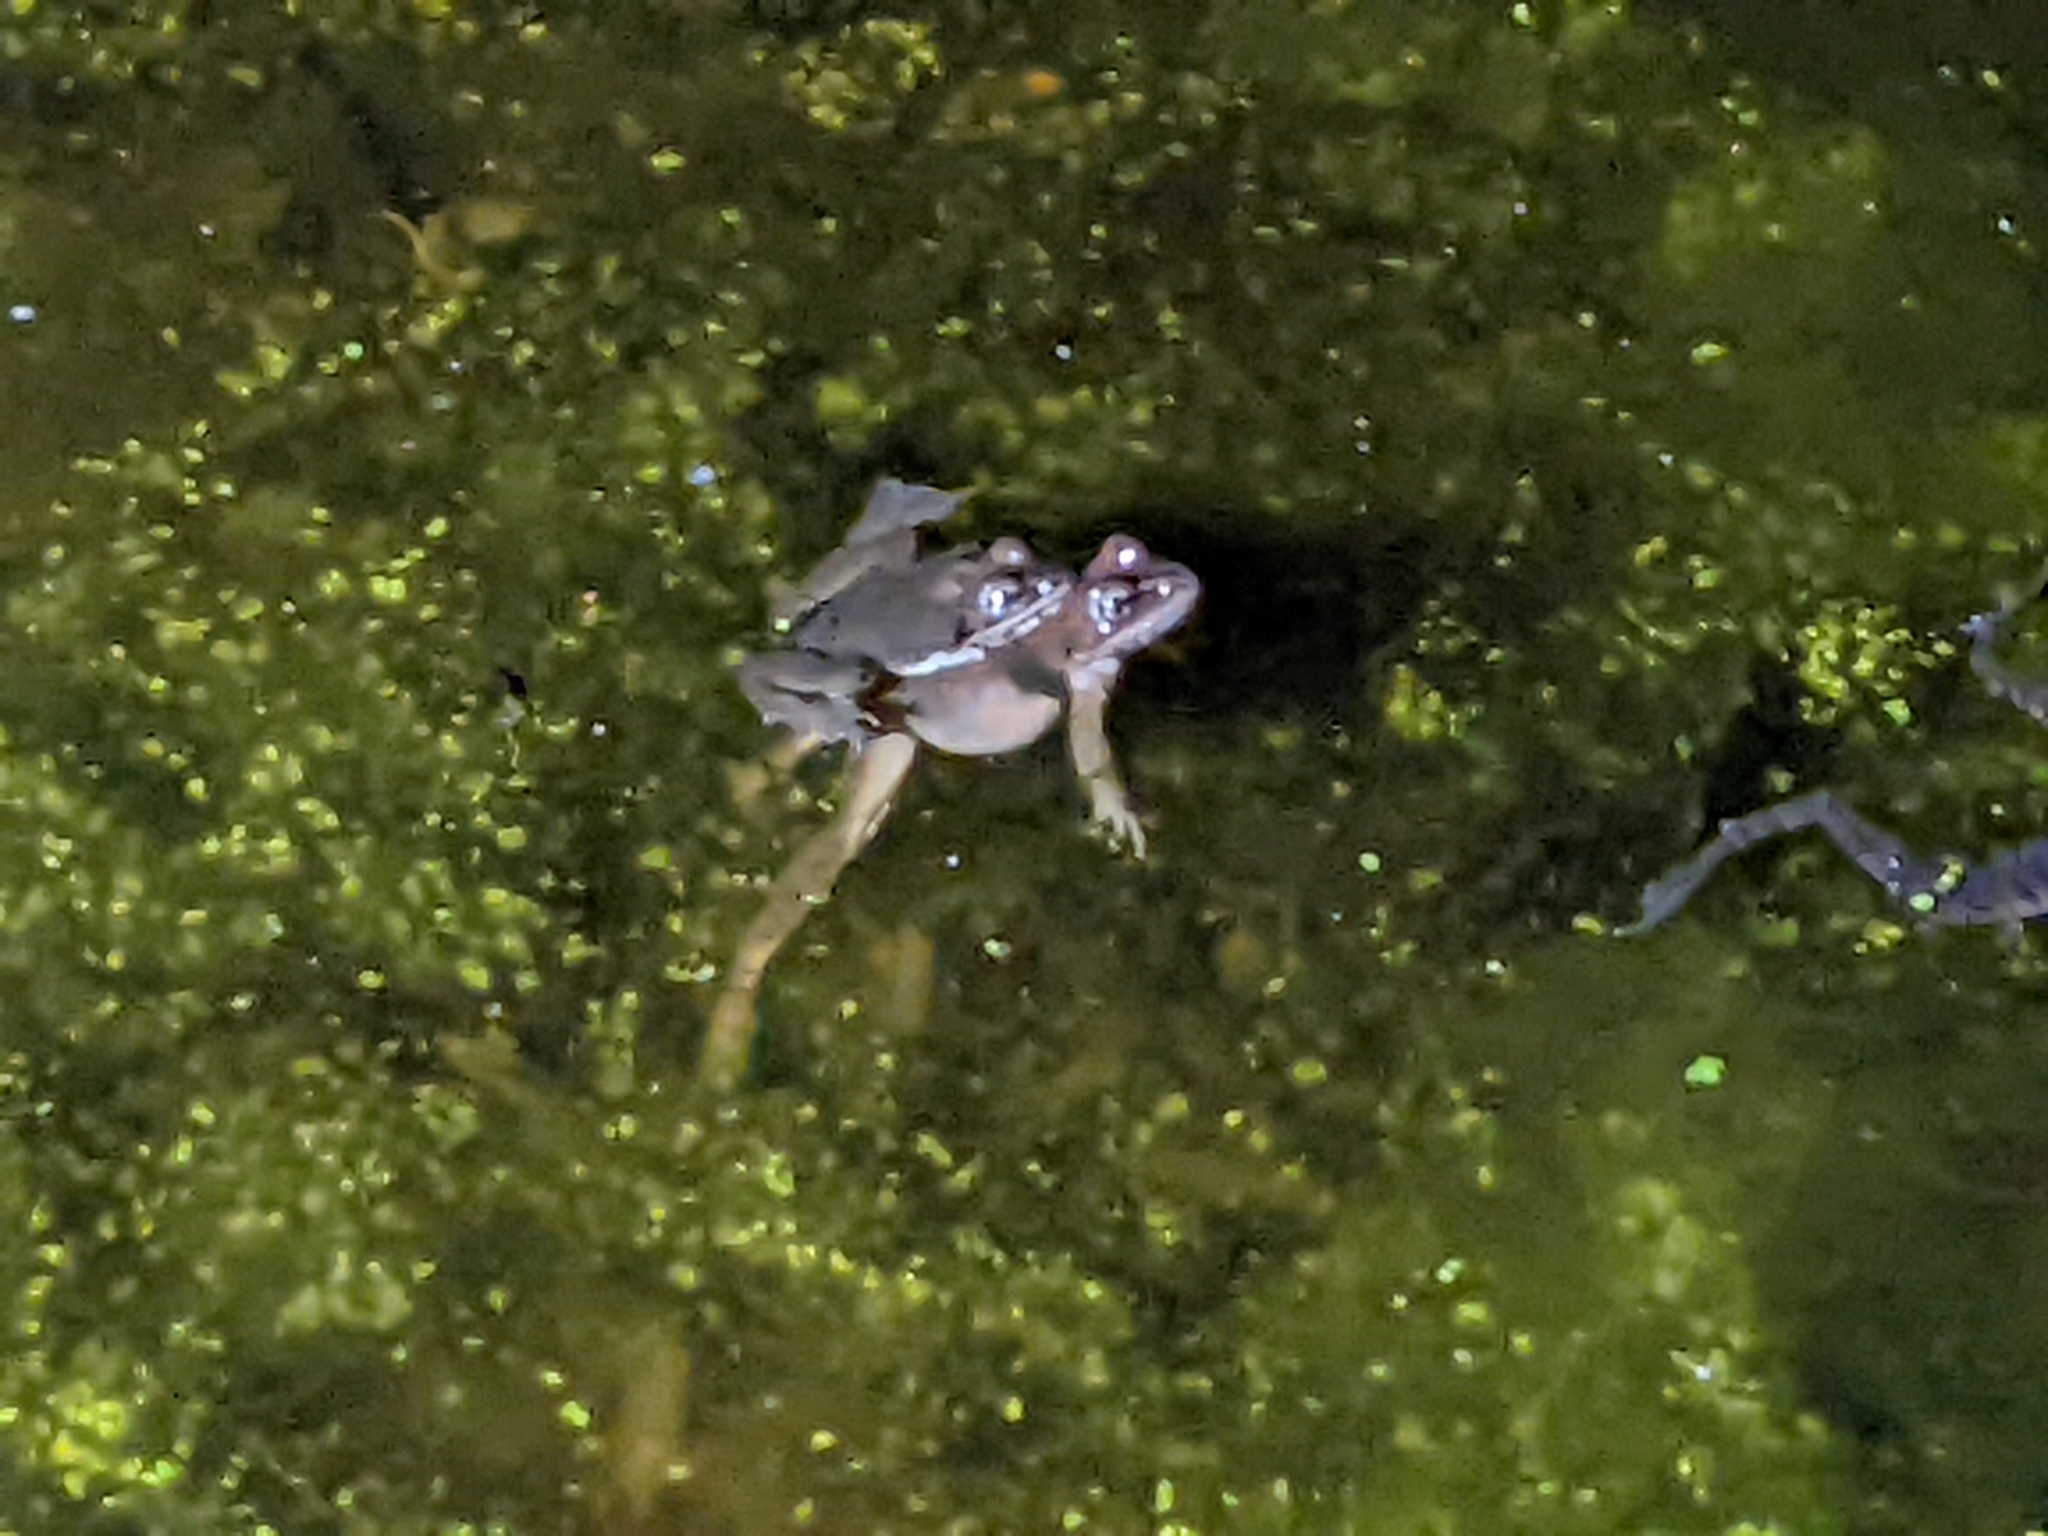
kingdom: Animalia
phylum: Chordata
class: Amphibia
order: Anura
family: Ranidae
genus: Lithobates
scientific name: Lithobates sylvaticus
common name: Wood frog
